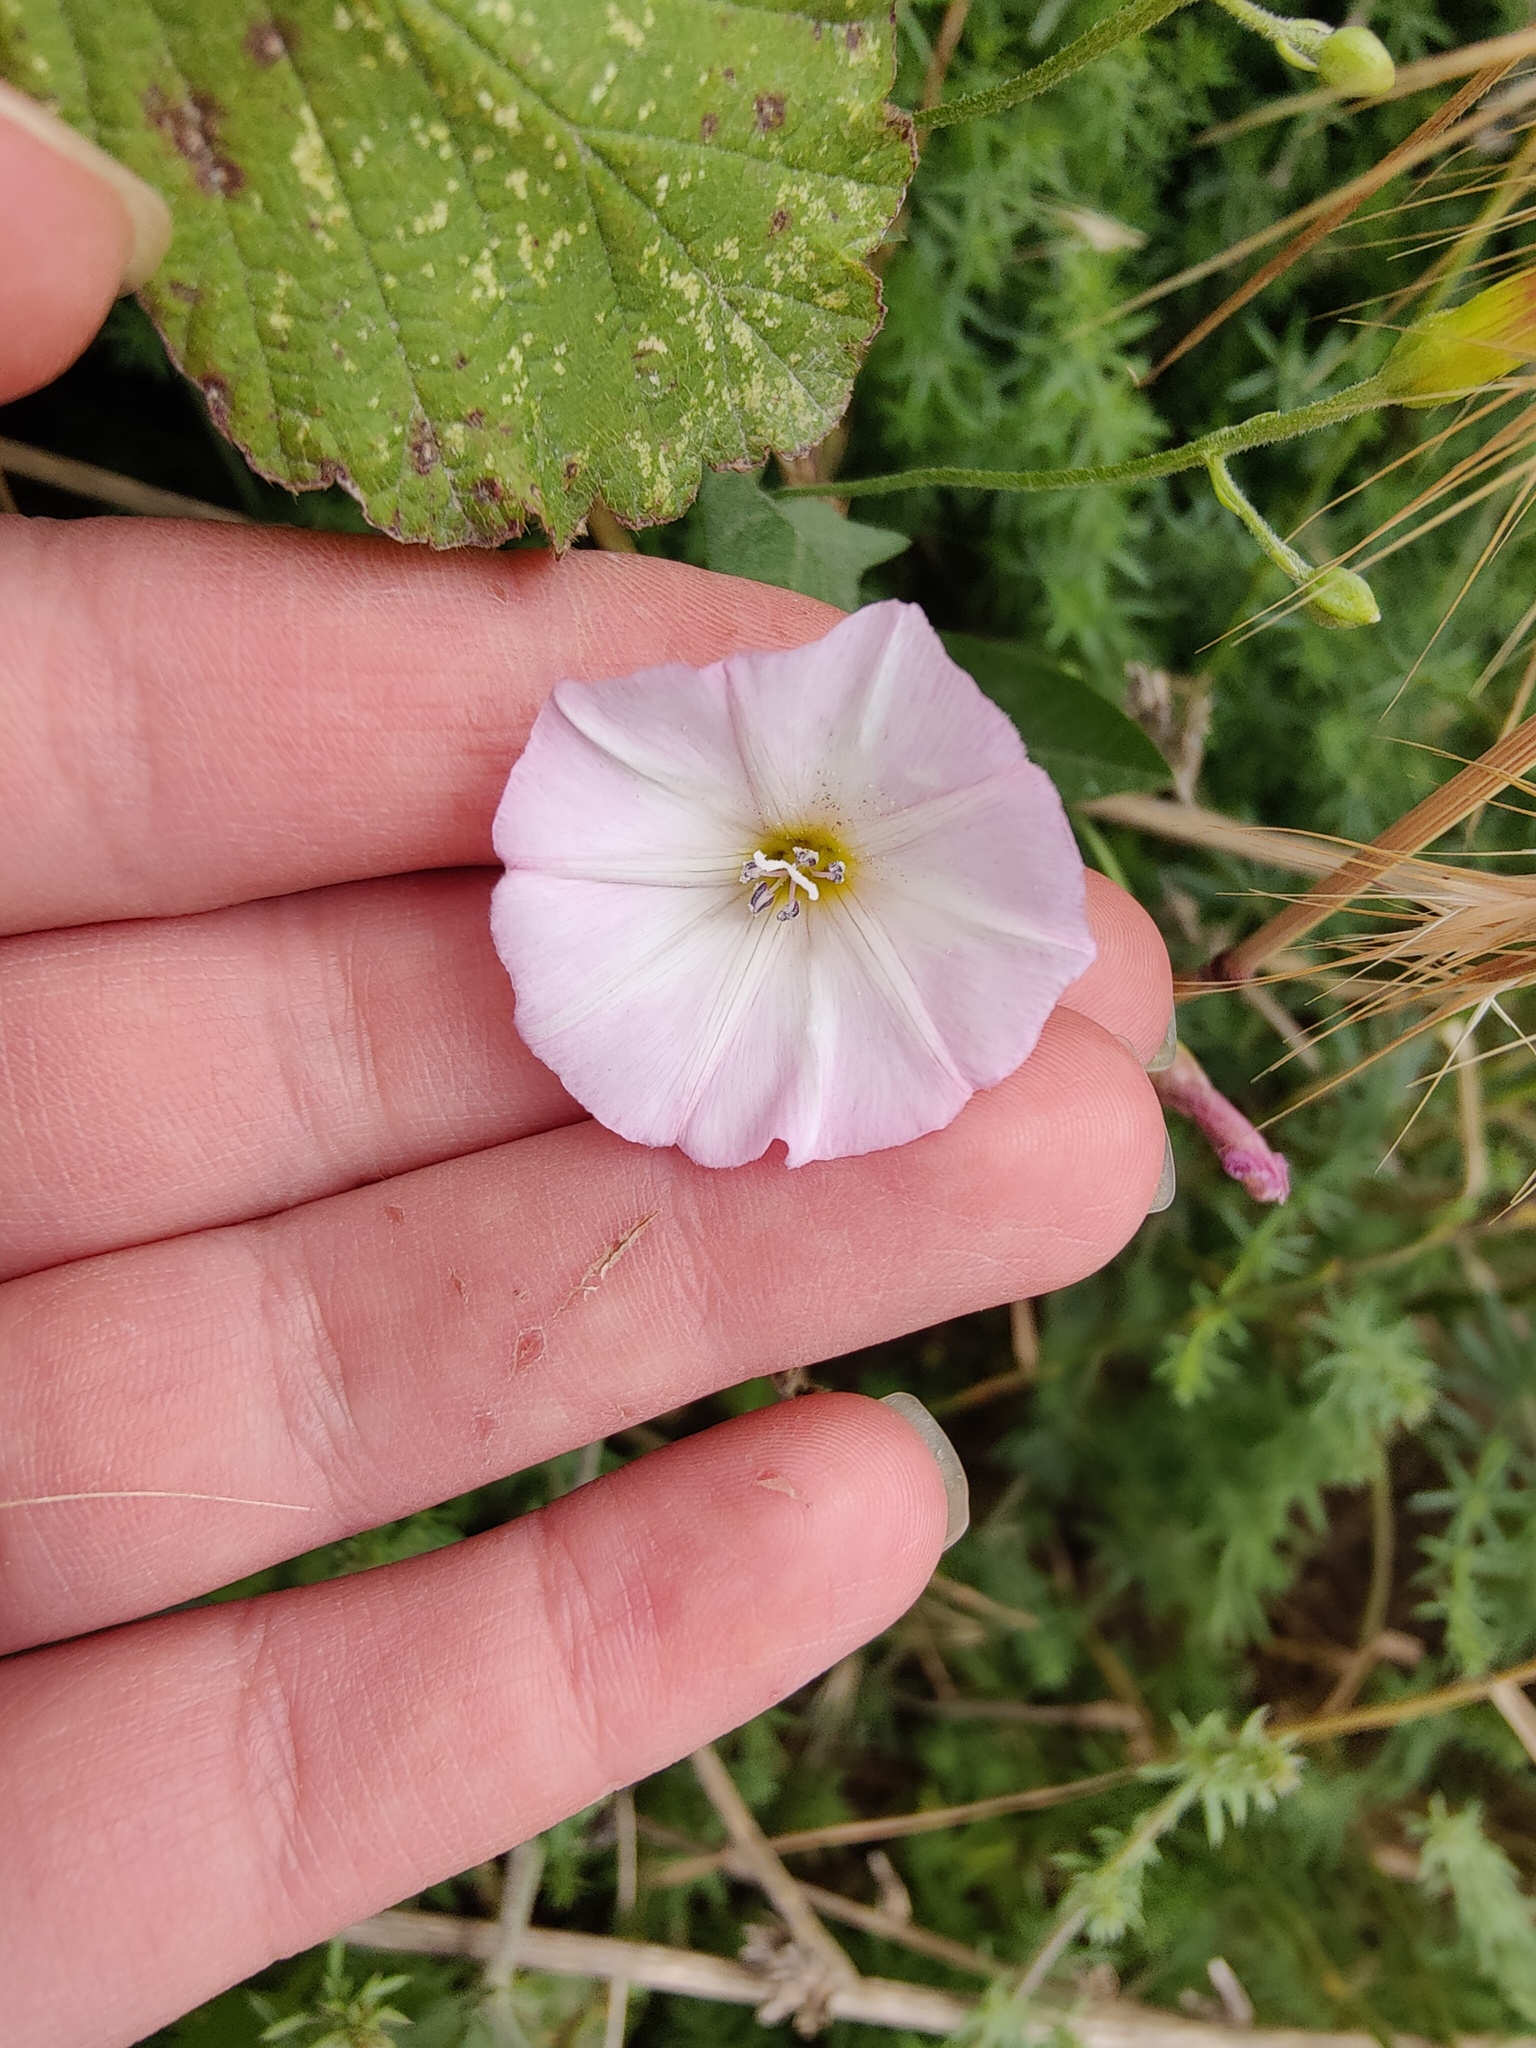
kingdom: Plantae
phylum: Tracheophyta
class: Magnoliopsida
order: Solanales
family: Convolvulaceae
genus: Convolvulus
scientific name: Convolvulus arvensis
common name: Field bindweed
